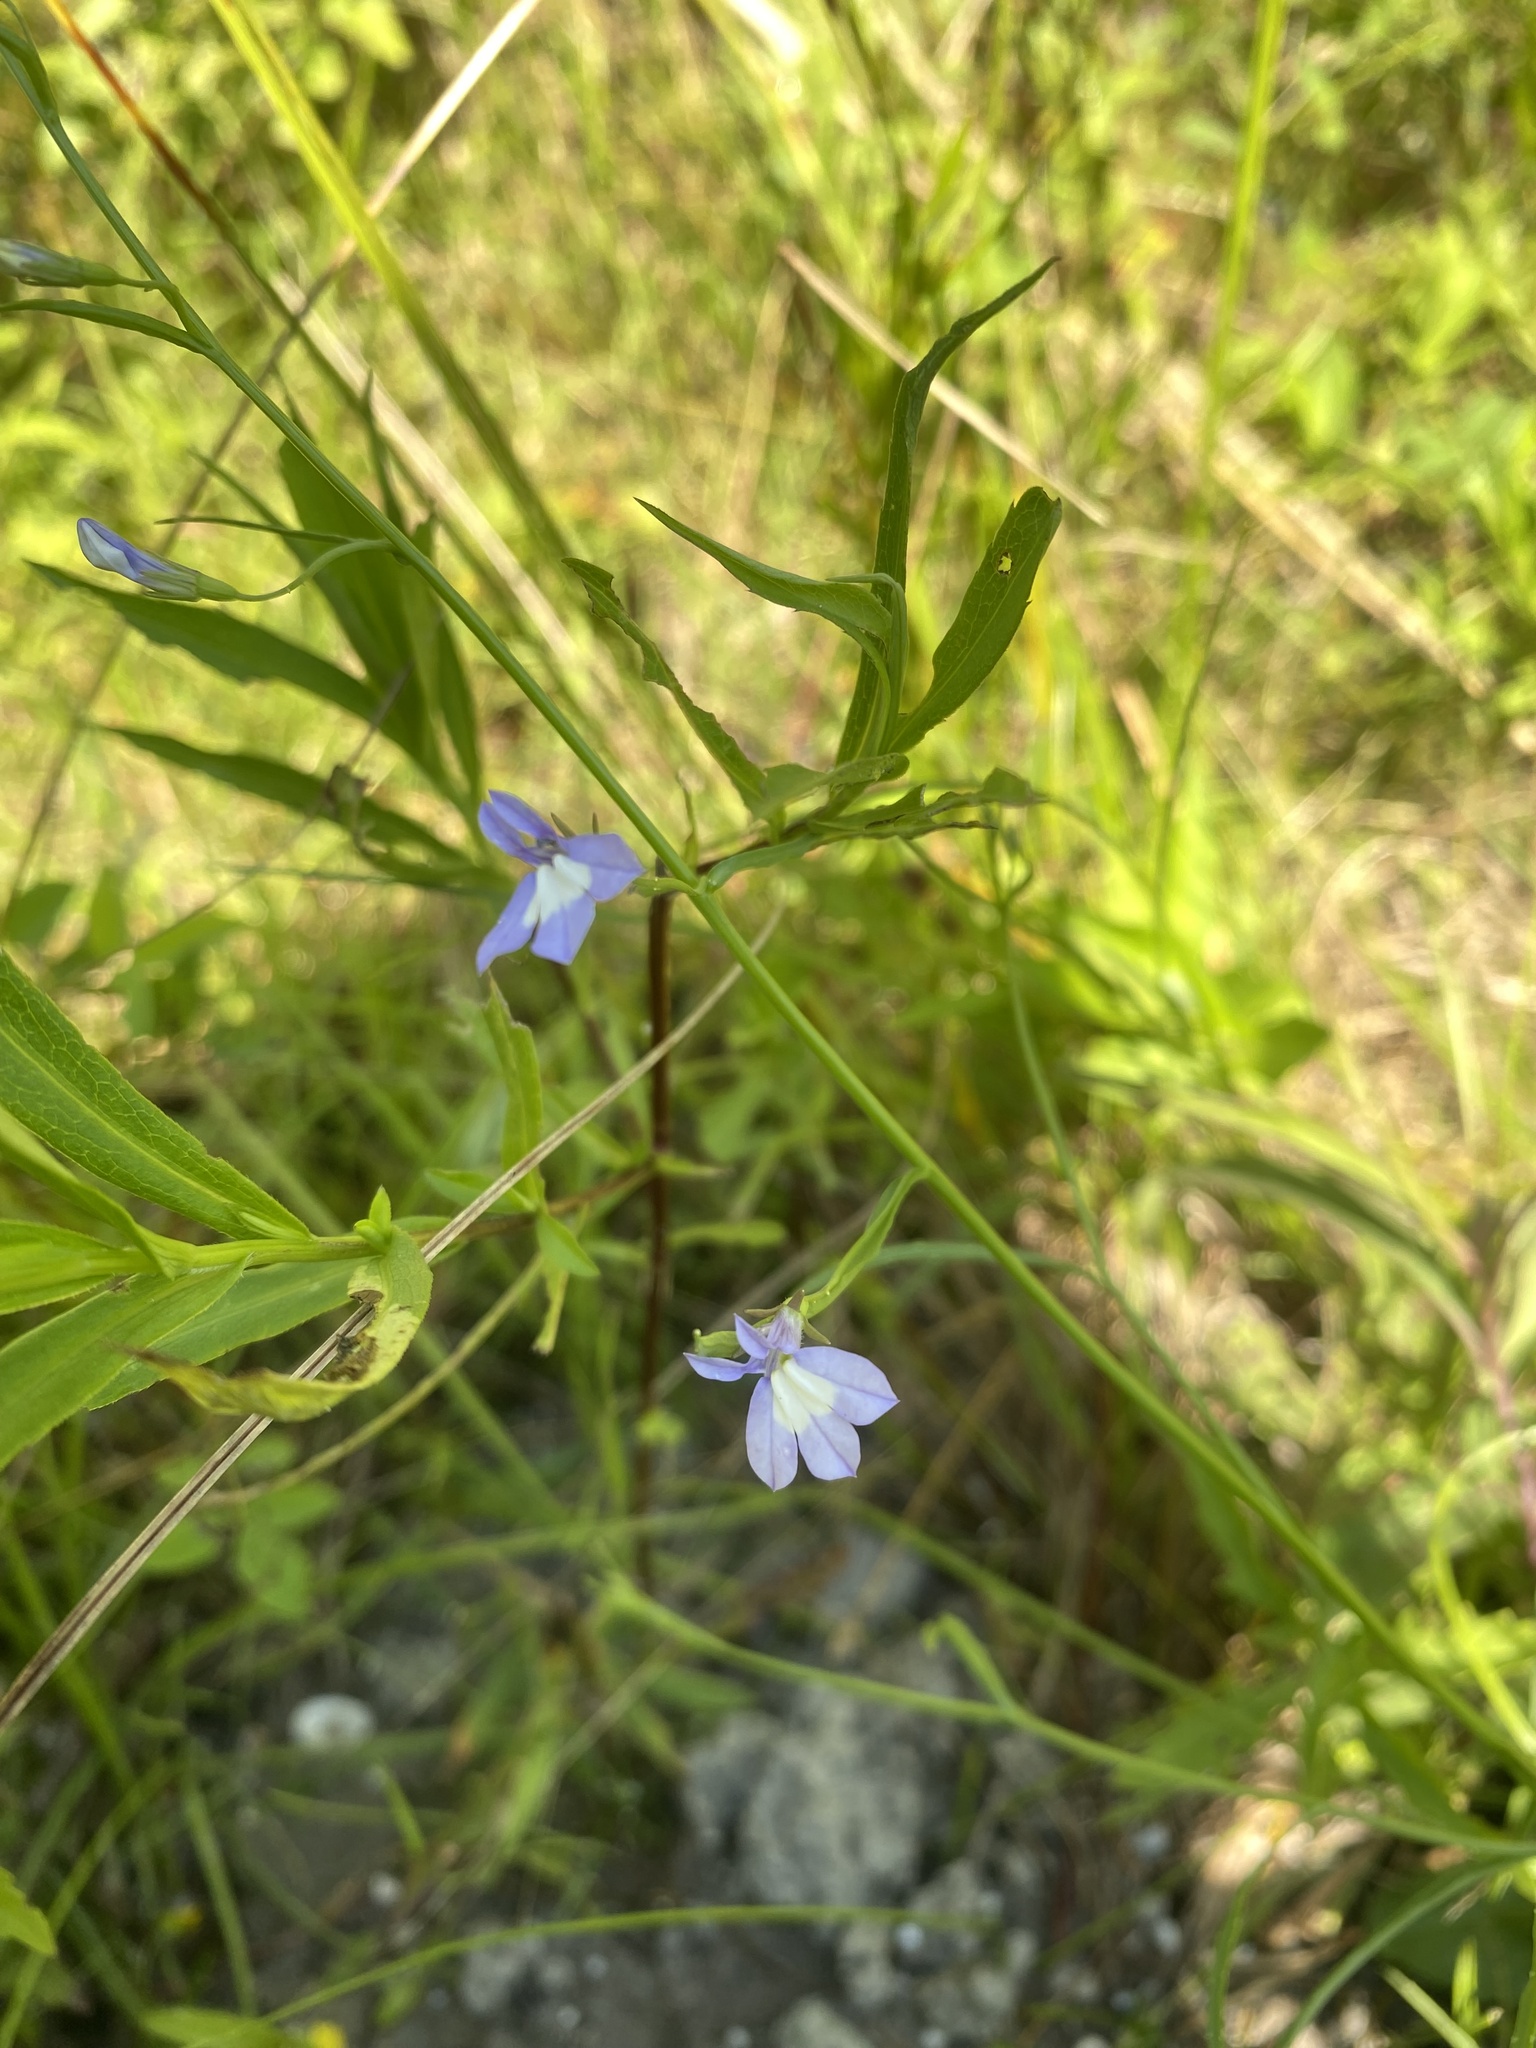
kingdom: Plantae
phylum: Tracheophyta
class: Magnoliopsida
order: Asterales
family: Campanulaceae
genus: Lobelia
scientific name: Lobelia kalmii
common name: Kalm's lobelia
